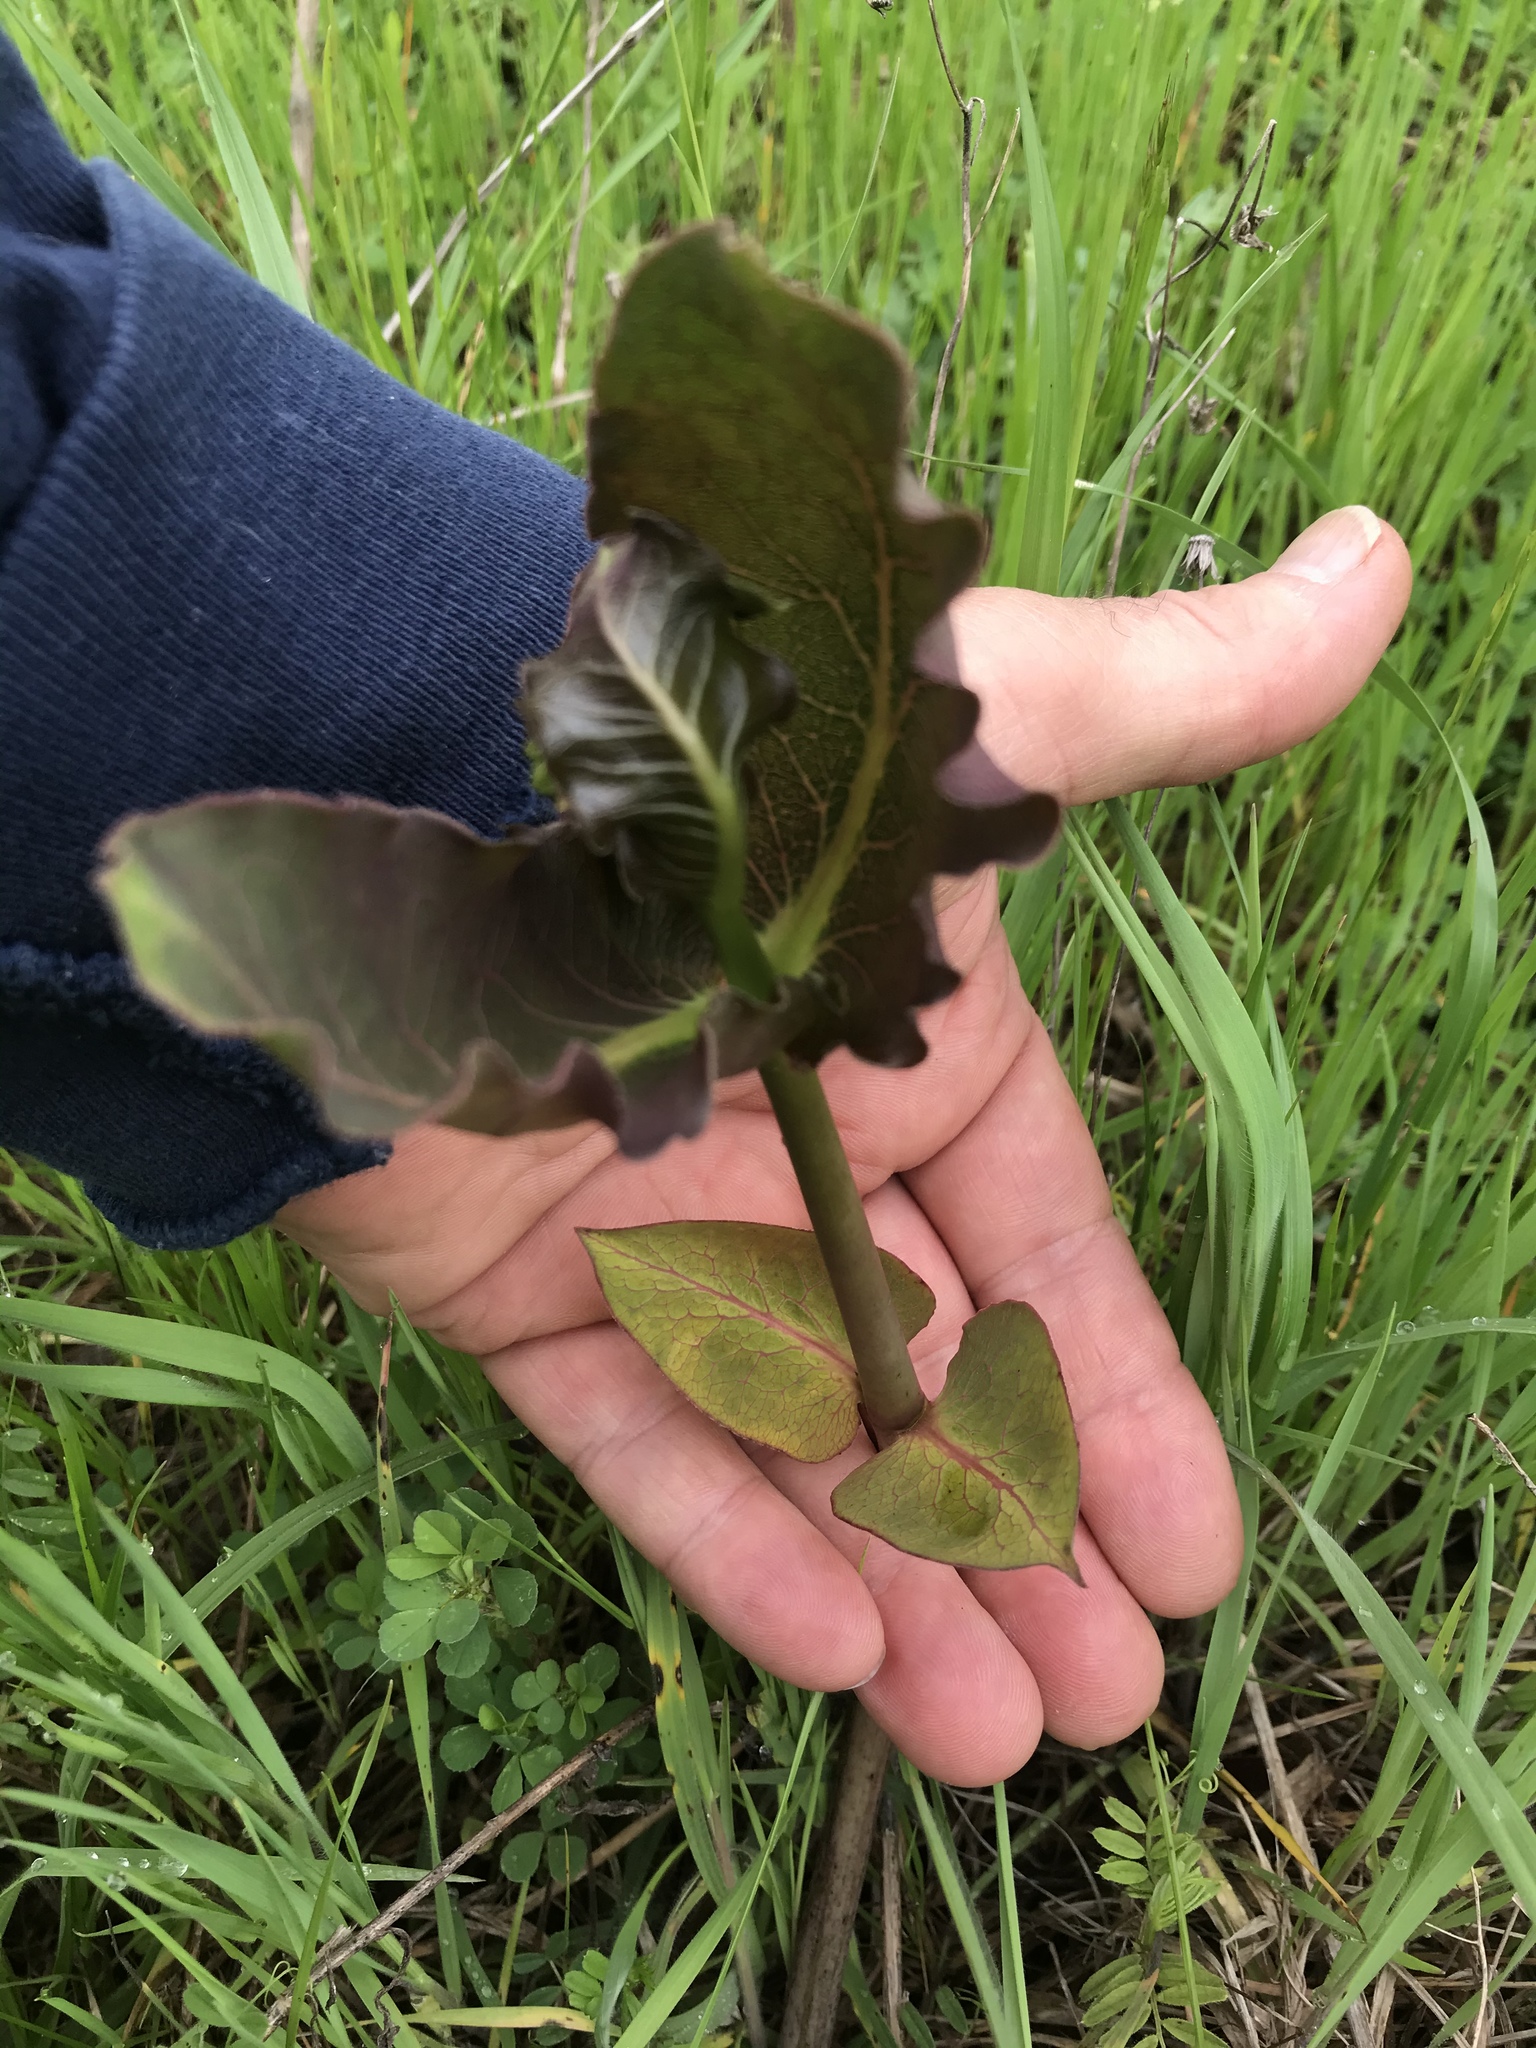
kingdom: Plantae
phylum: Tracheophyta
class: Magnoliopsida
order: Gentianales
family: Apocynaceae
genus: Asclepias
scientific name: Asclepias amplexicaulis
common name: Blunt-leaf milkweed
